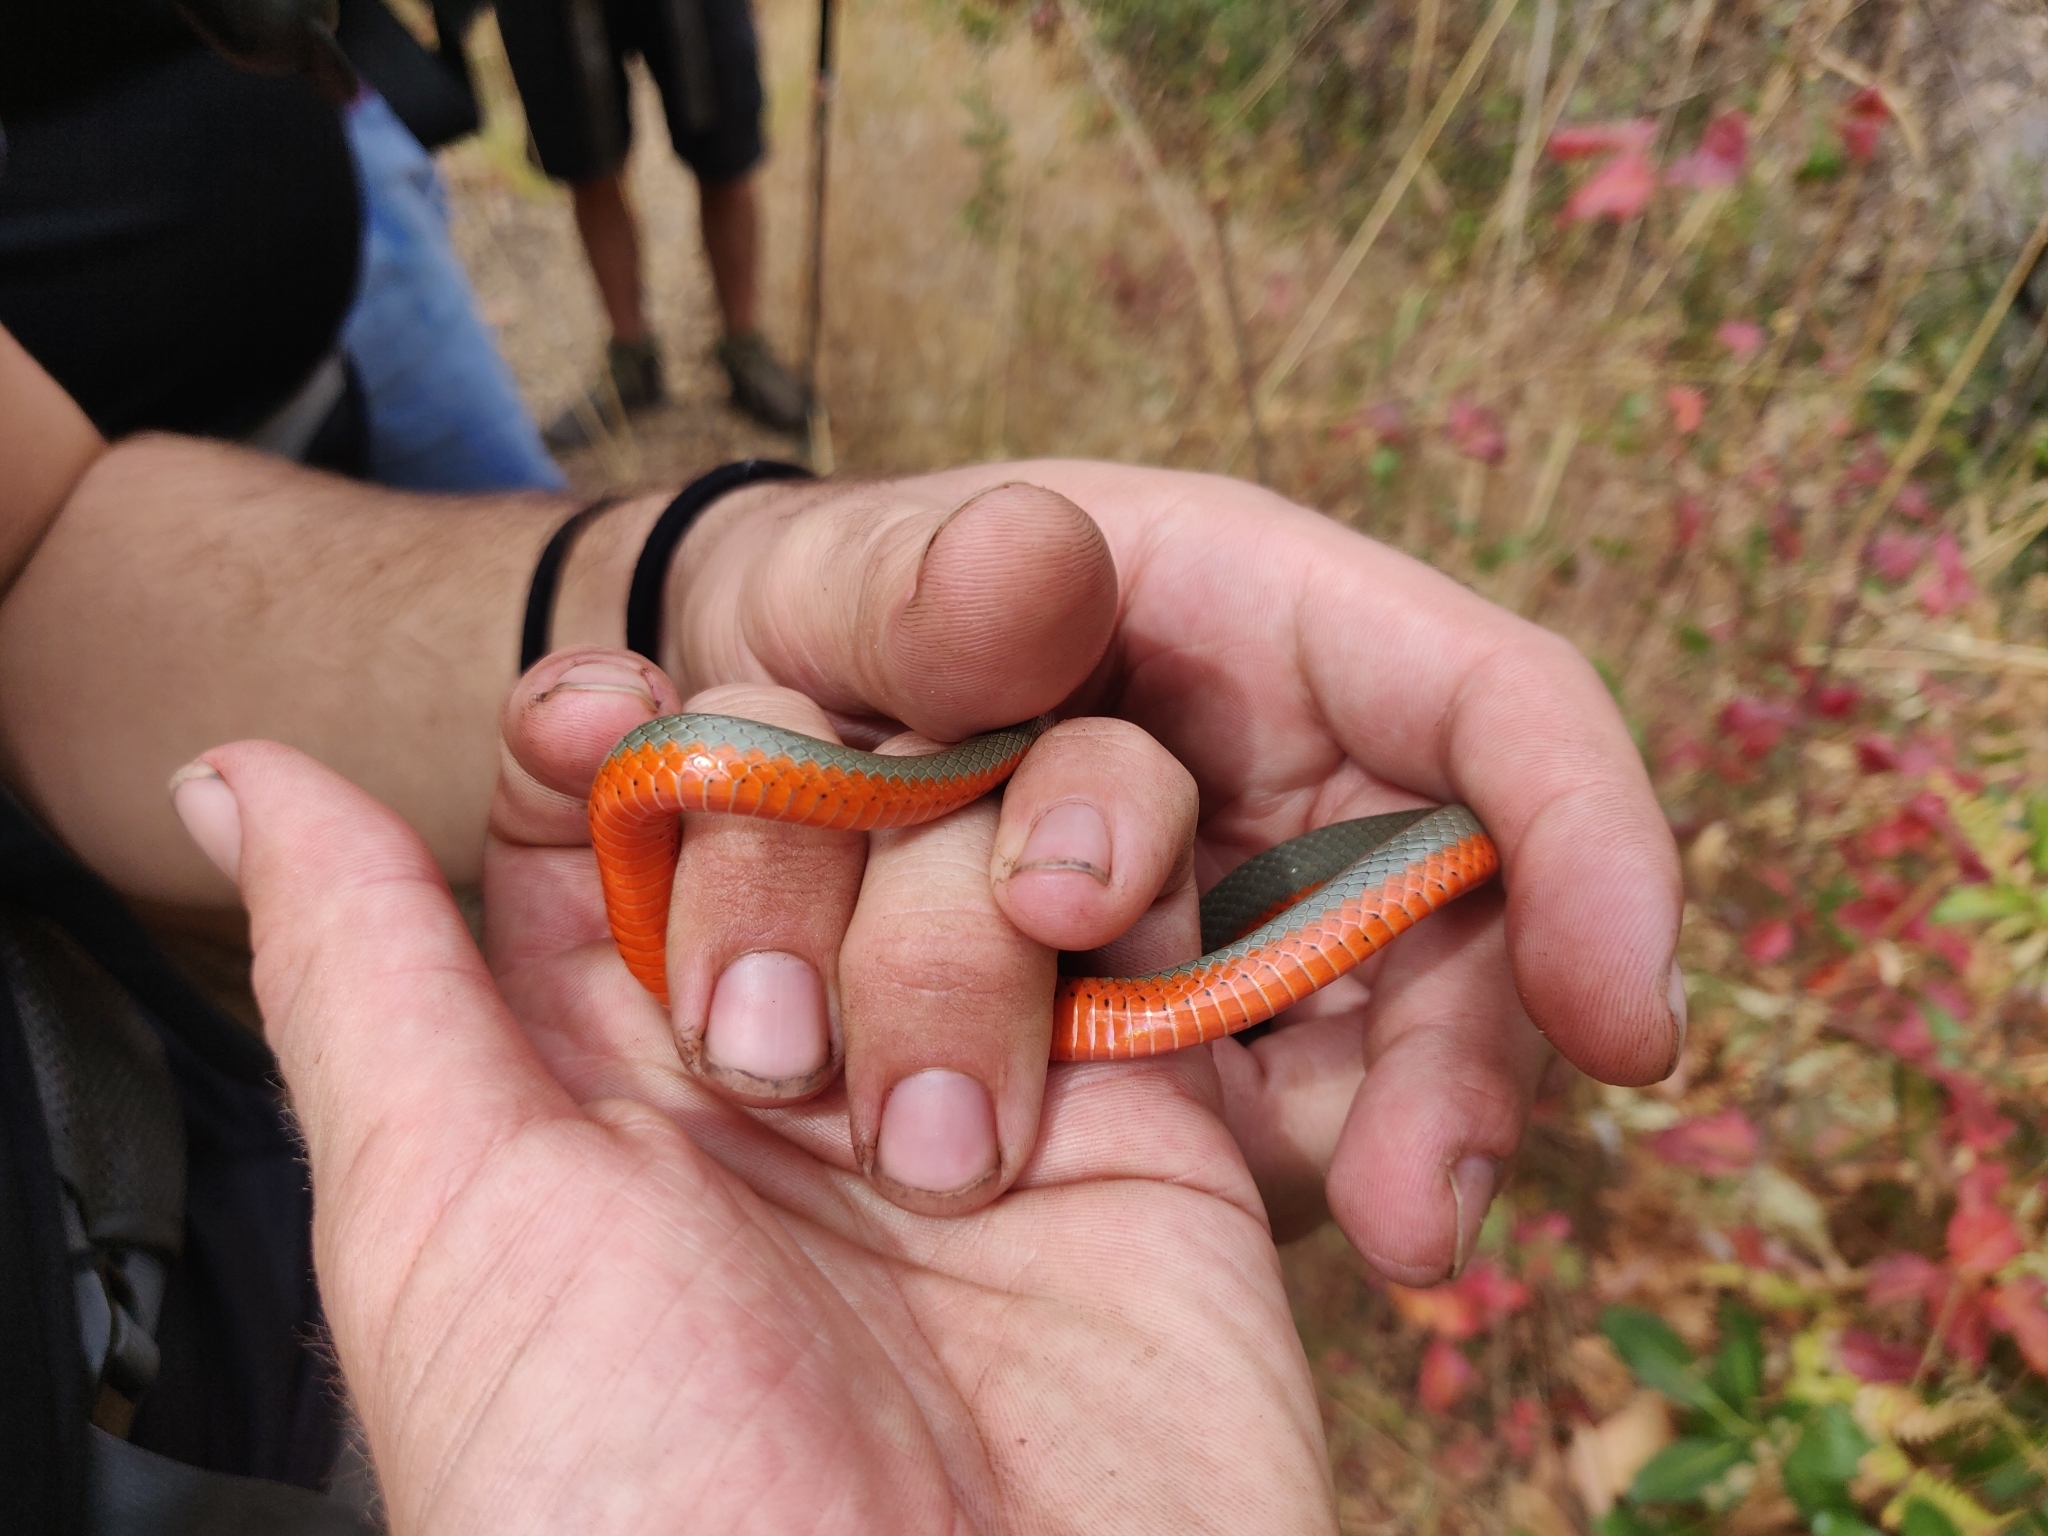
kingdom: Animalia
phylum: Chordata
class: Squamata
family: Colubridae
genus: Diadophis
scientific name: Diadophis punctatus
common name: Ringneck snake
